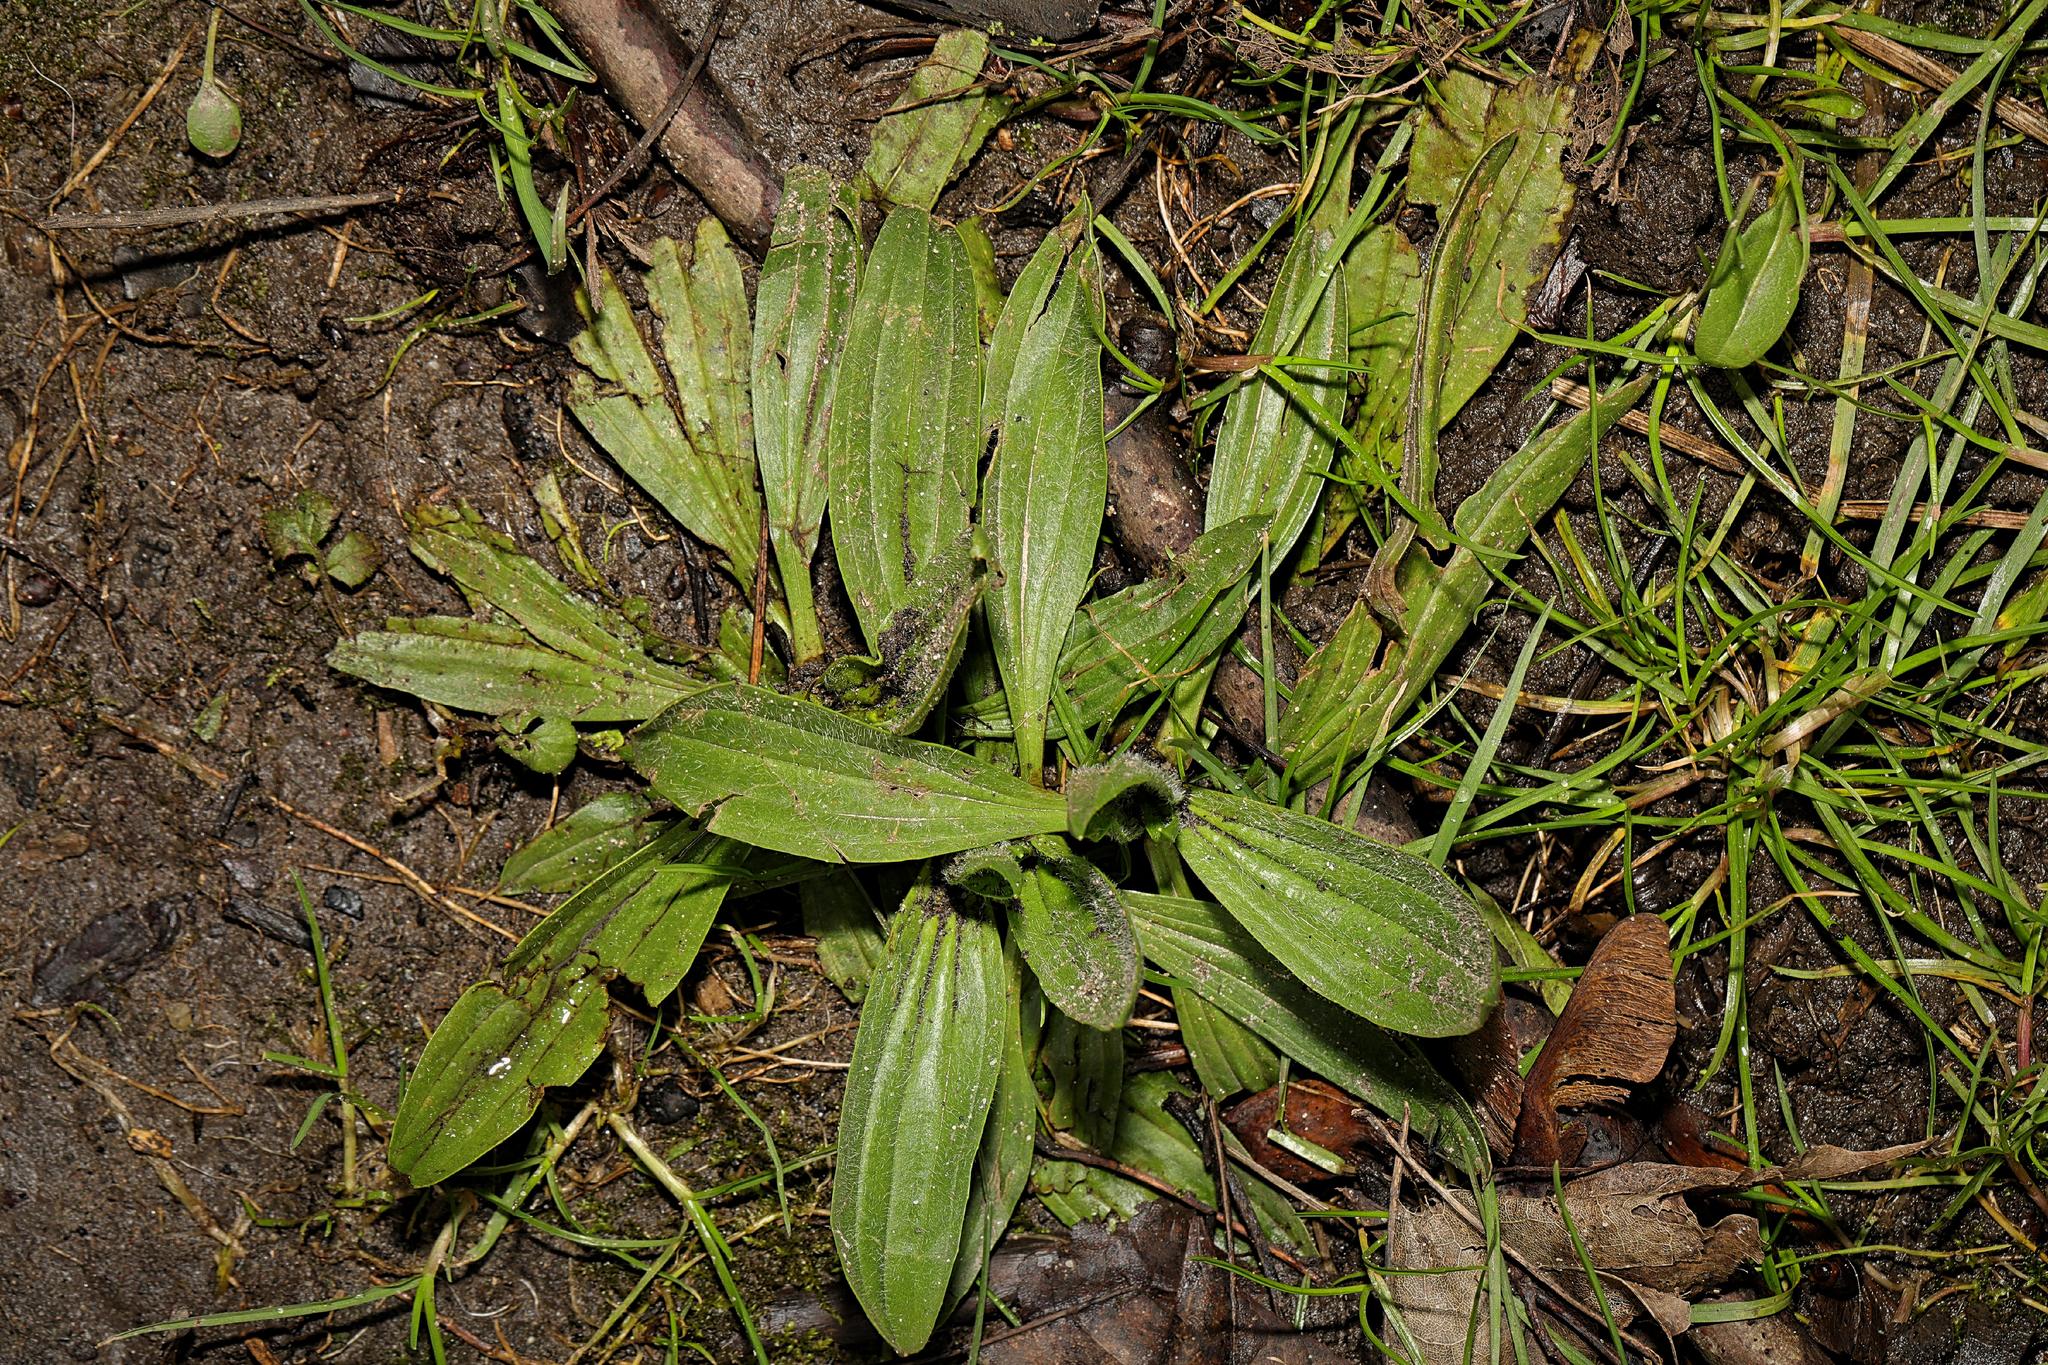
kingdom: Plantae
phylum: Tracheophyta
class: Magnoliopsida
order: Lamiales
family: Plantaginaceae
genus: Plantago
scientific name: Plantago lanceolata
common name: Ribwort plantain
